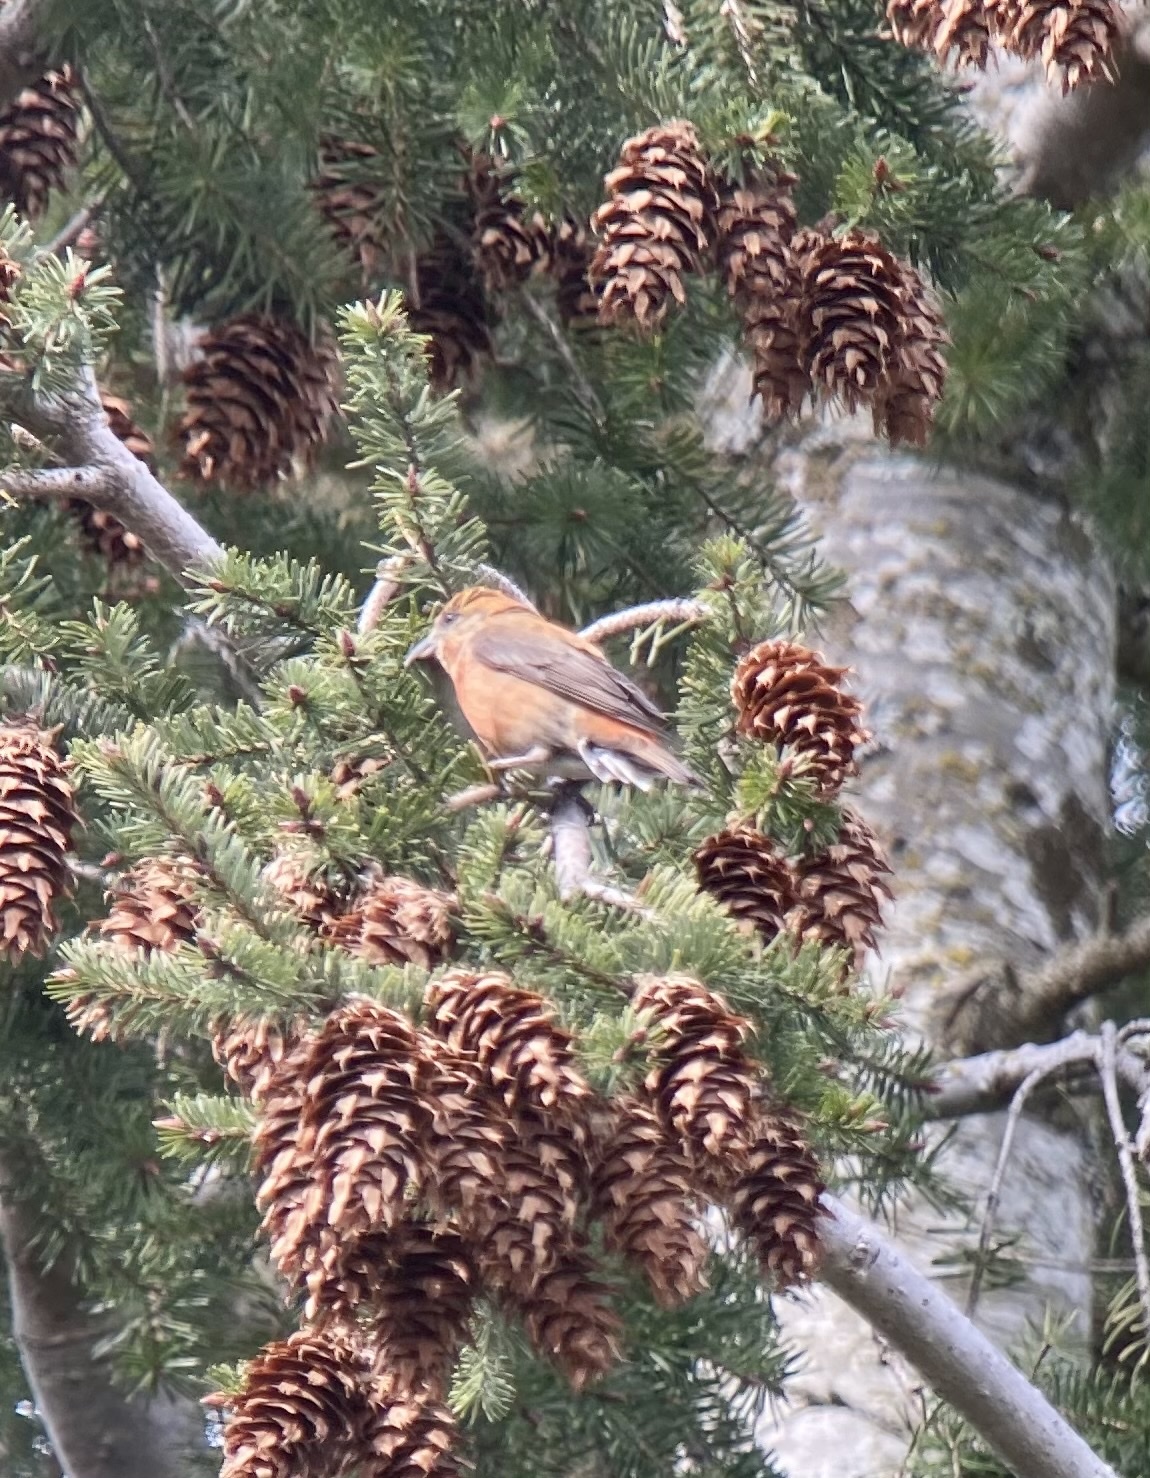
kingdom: Animalia
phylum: Chordata
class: Aves
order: Passeriformes
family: Fringillidae
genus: Loxia
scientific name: Loxia curvirostra
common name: Red crossbill
